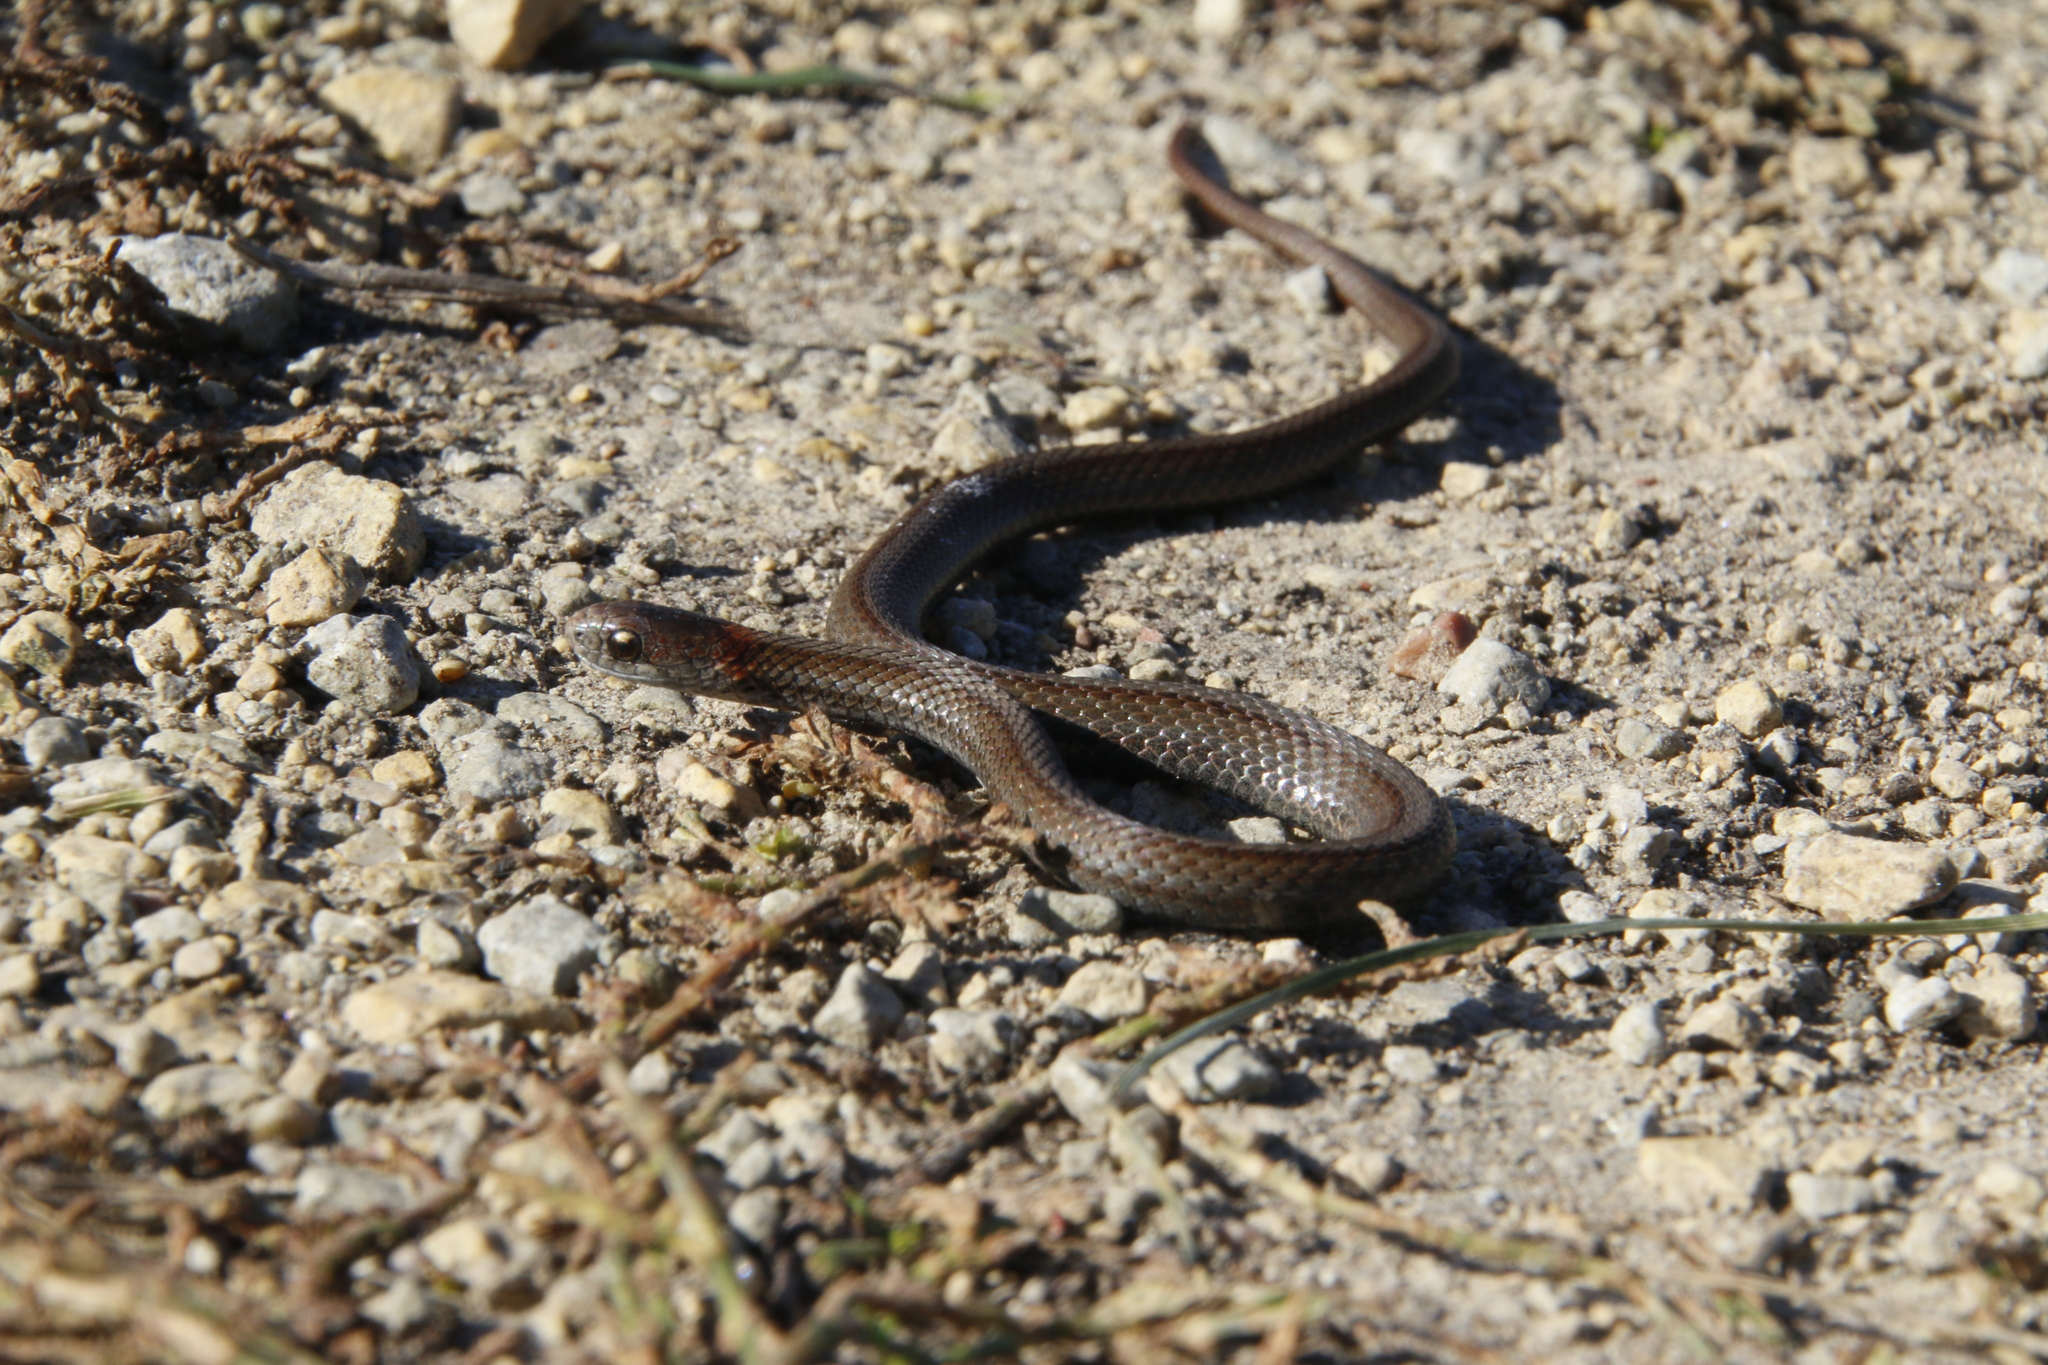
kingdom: Animalia
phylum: Chordata
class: Squamata
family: Colubridae
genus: Storeria
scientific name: Storeria occipitomaculata
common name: Redbelly snake
